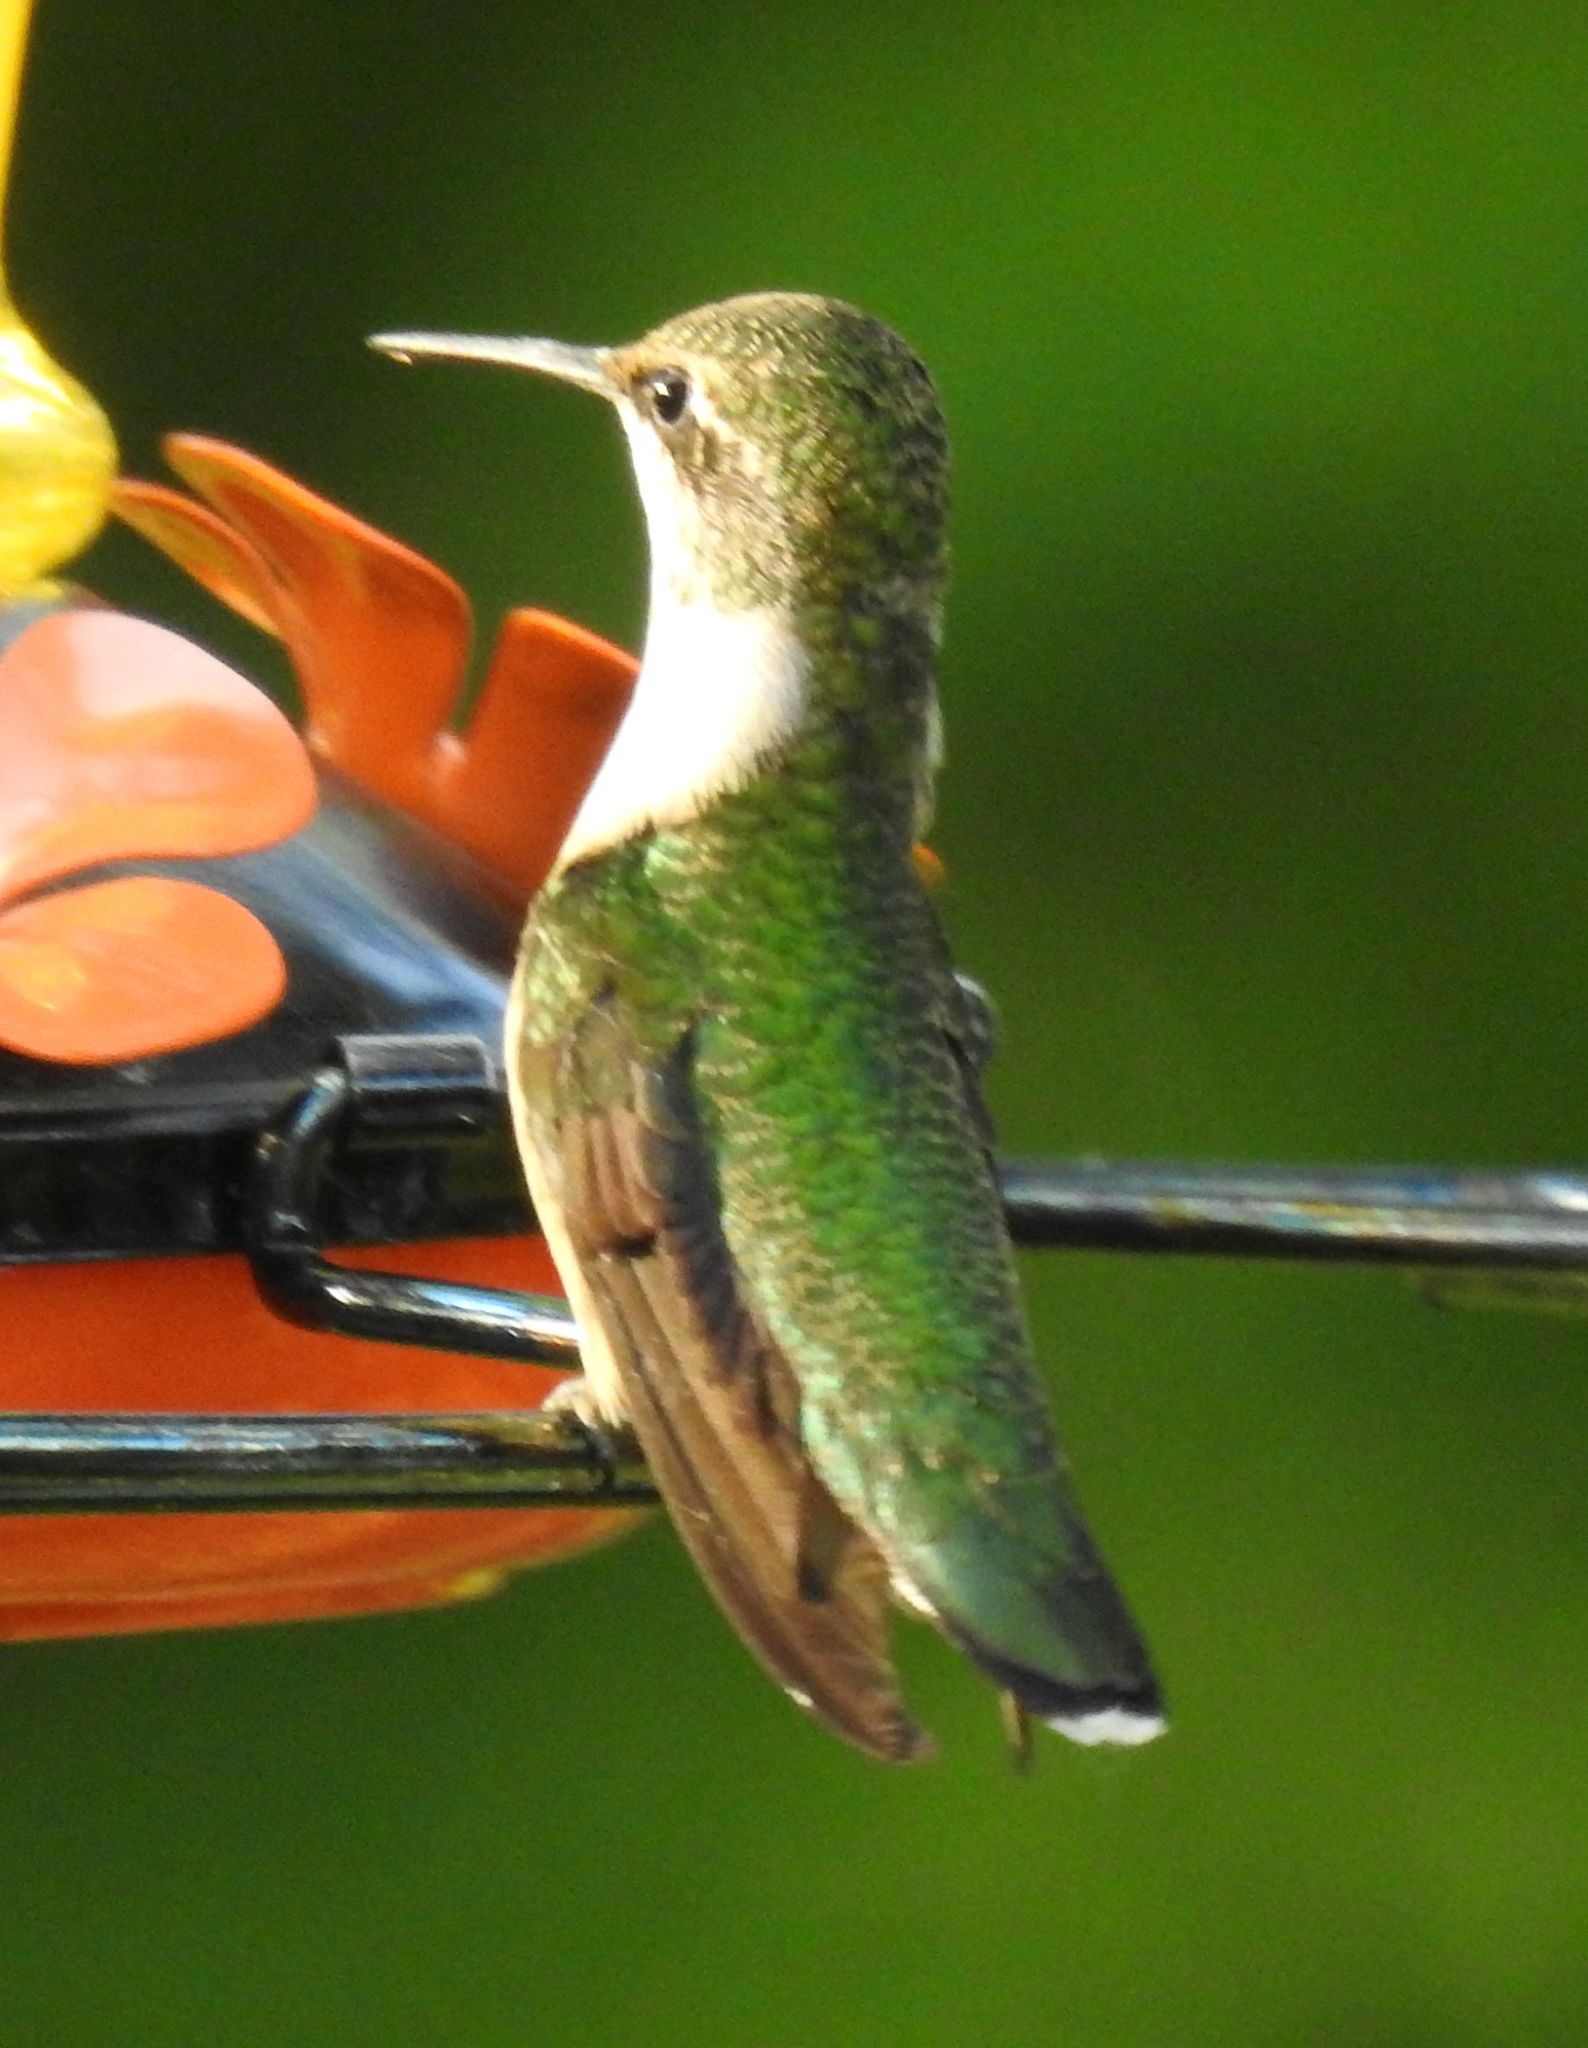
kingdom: Animalia
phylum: Chordata
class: Aves
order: Apodiformes
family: Trochilidae
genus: Archilochus
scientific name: Archilochus colubris
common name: Ruby-throated hummingbird
